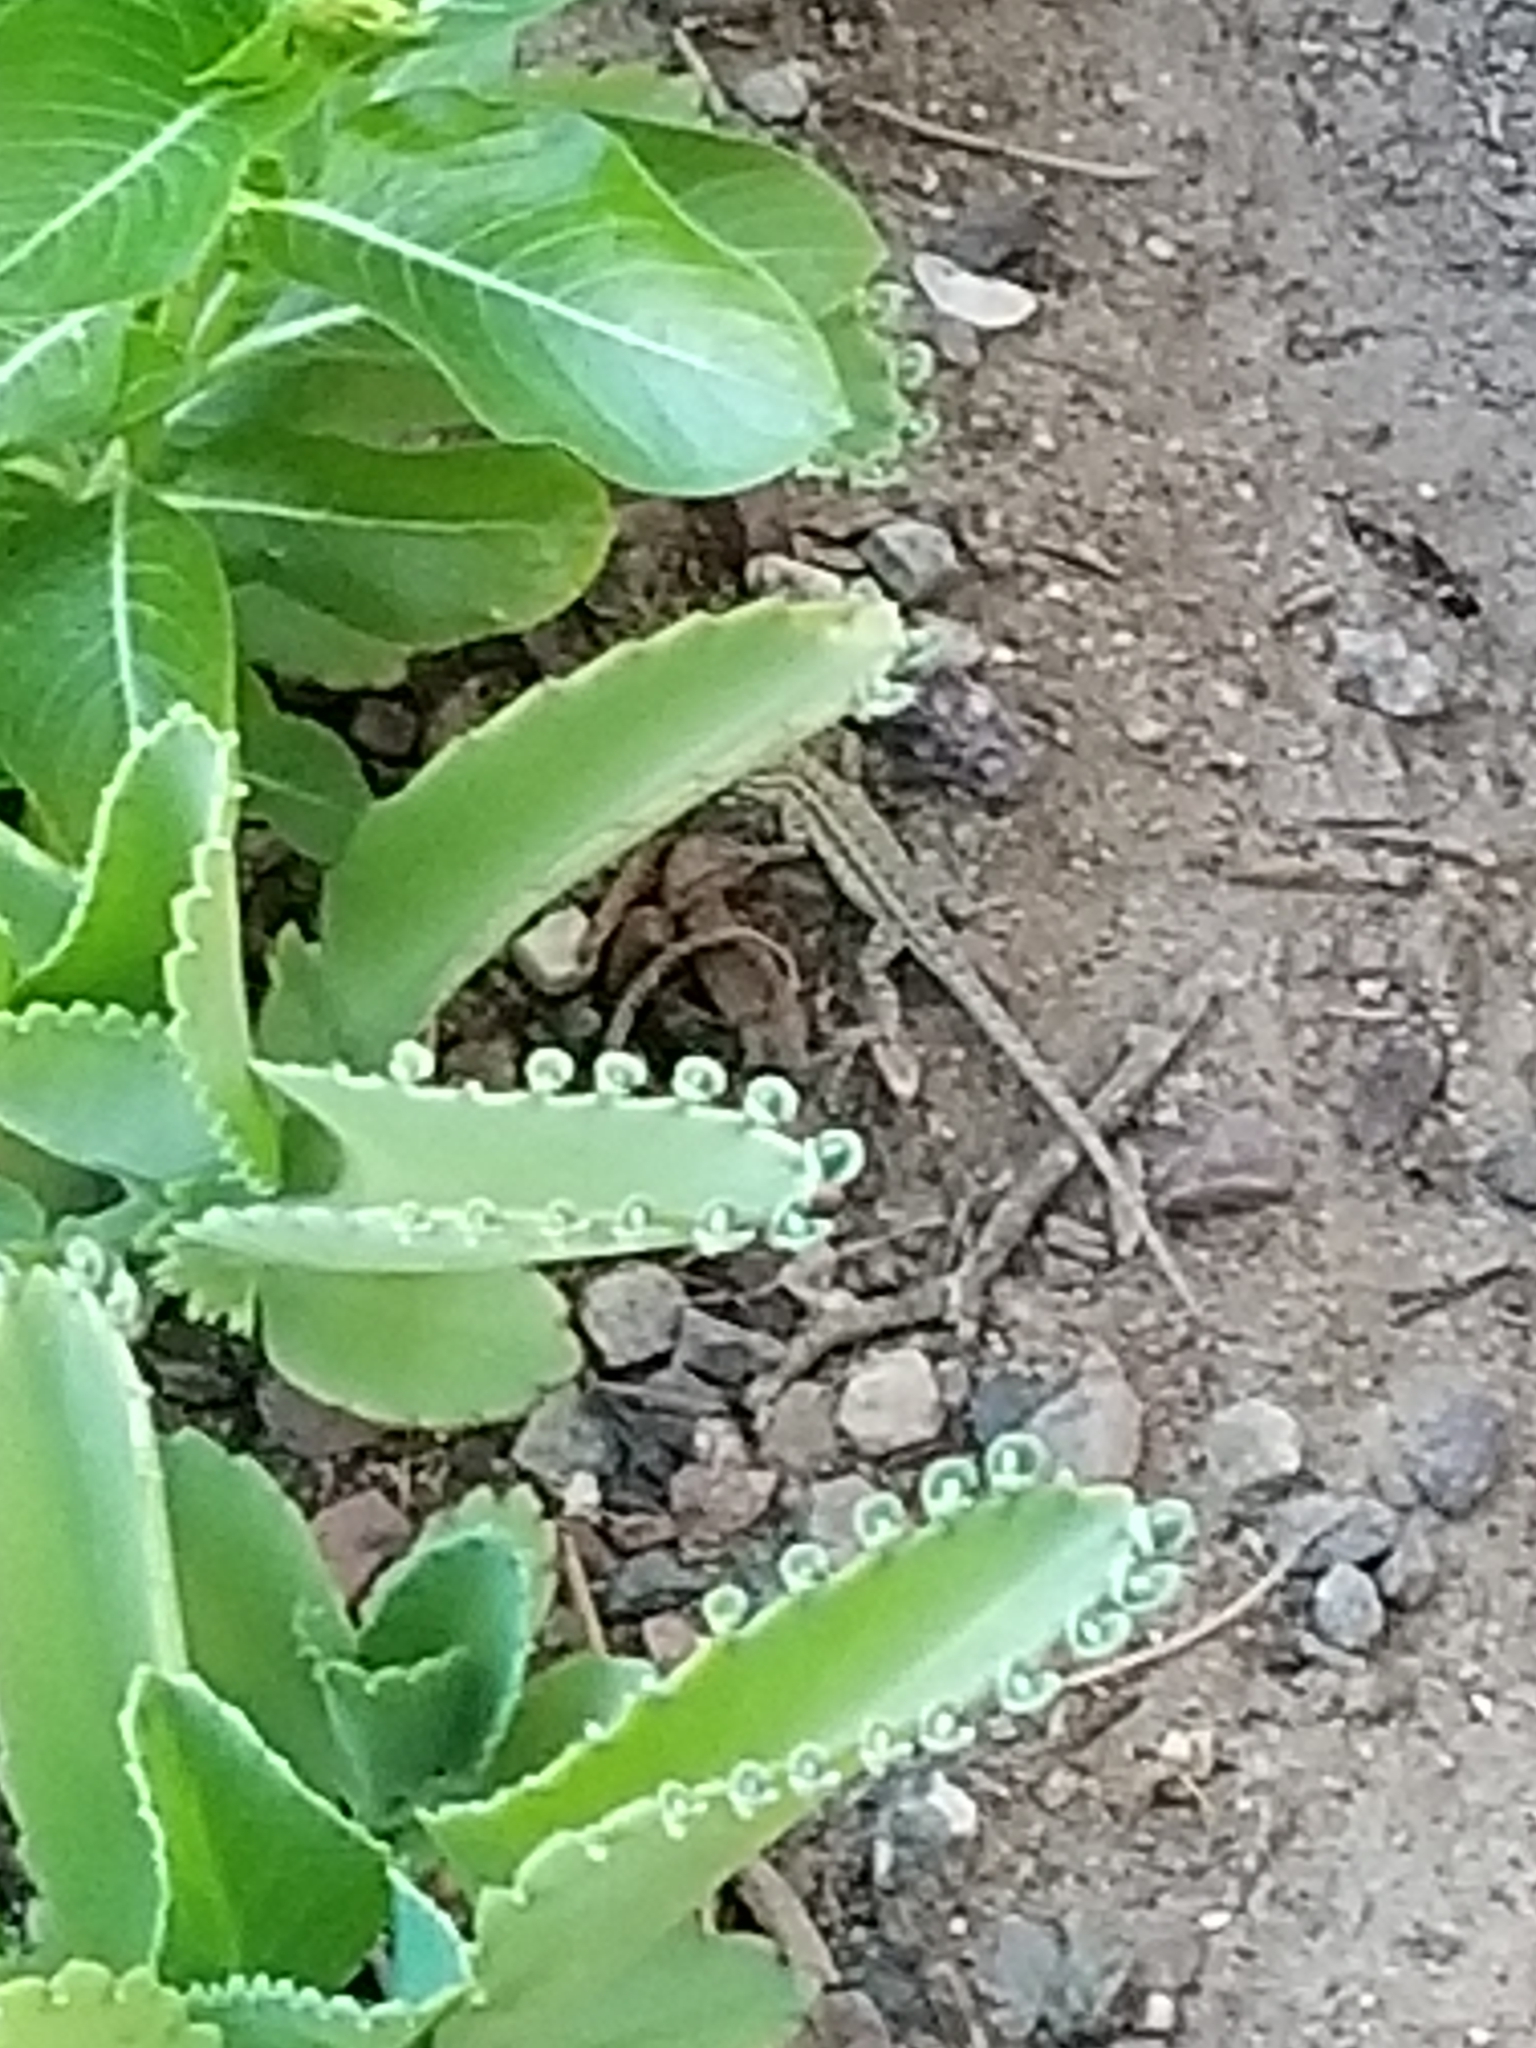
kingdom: Animalia
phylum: Chordata
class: Squamata
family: Phrynosomatidae
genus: Uta
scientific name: Uta stansburiana
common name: Side-blotched lizard
